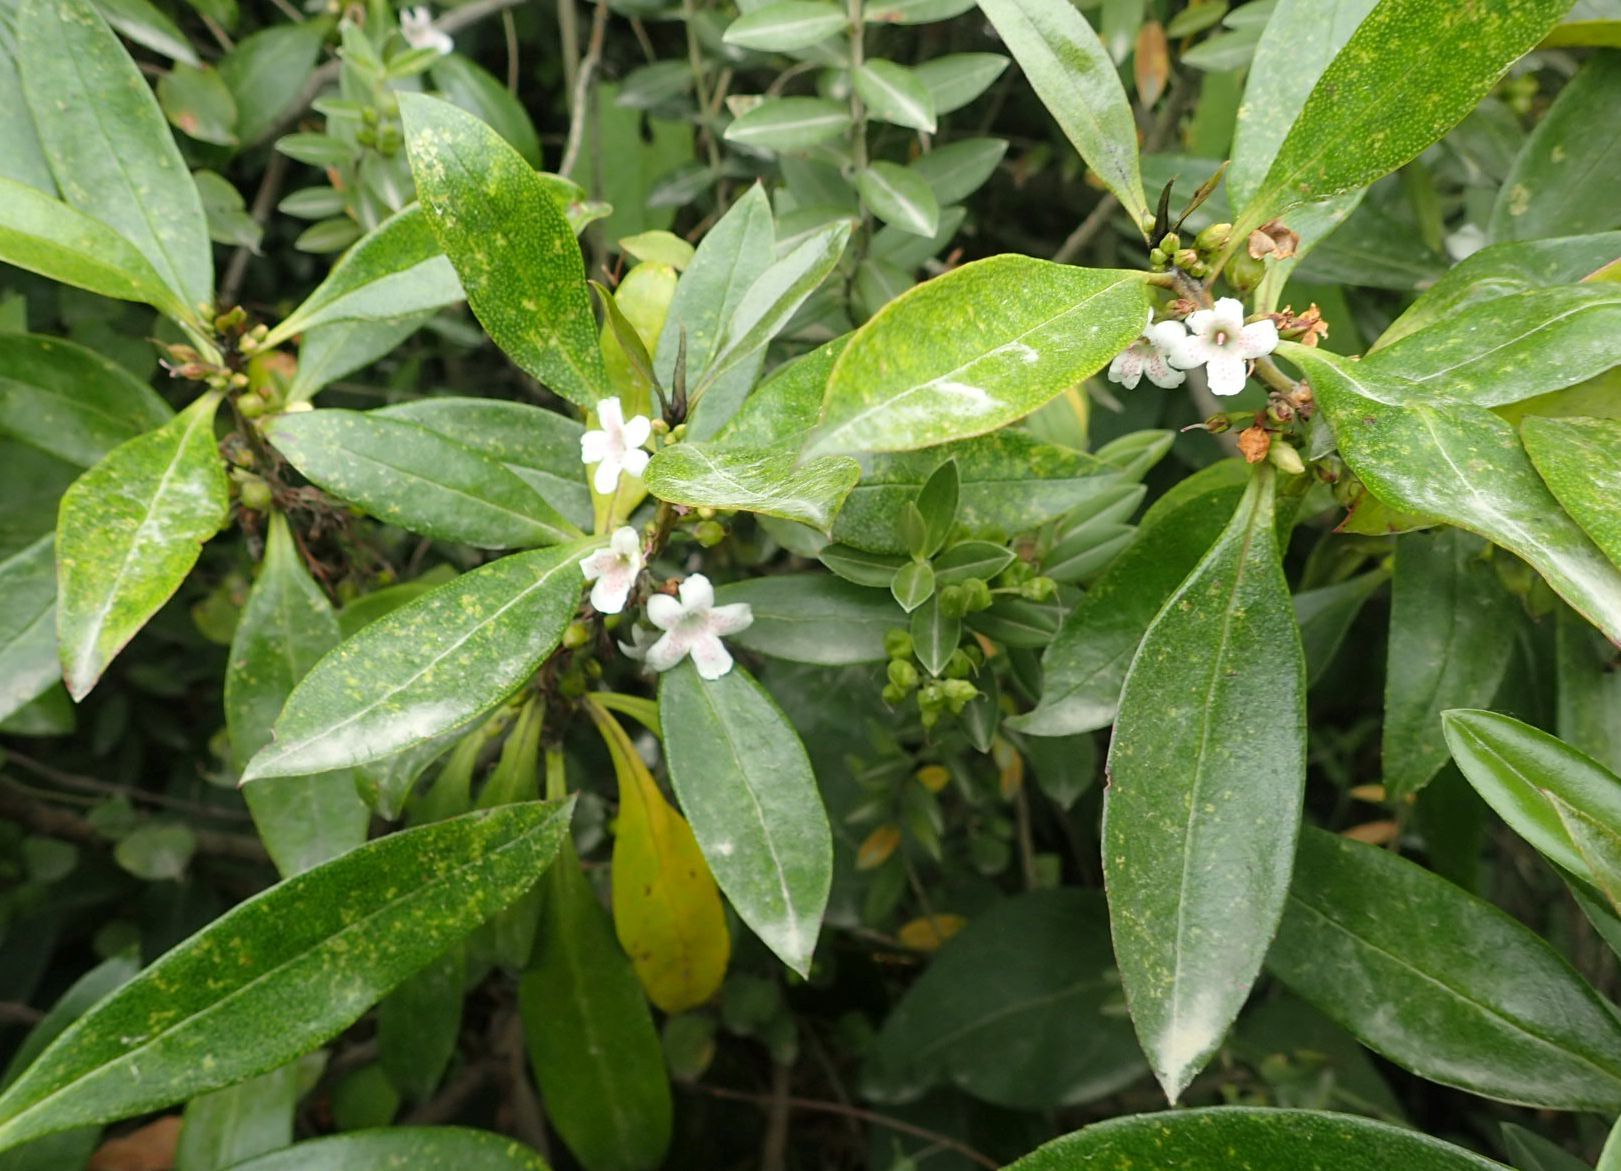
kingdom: Plantae
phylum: Tracheophyta
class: Magnoliopsida
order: Lamiales
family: Scrophulariaceae
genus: Myoporum
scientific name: Myoporum laetum
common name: Ngaio tree
